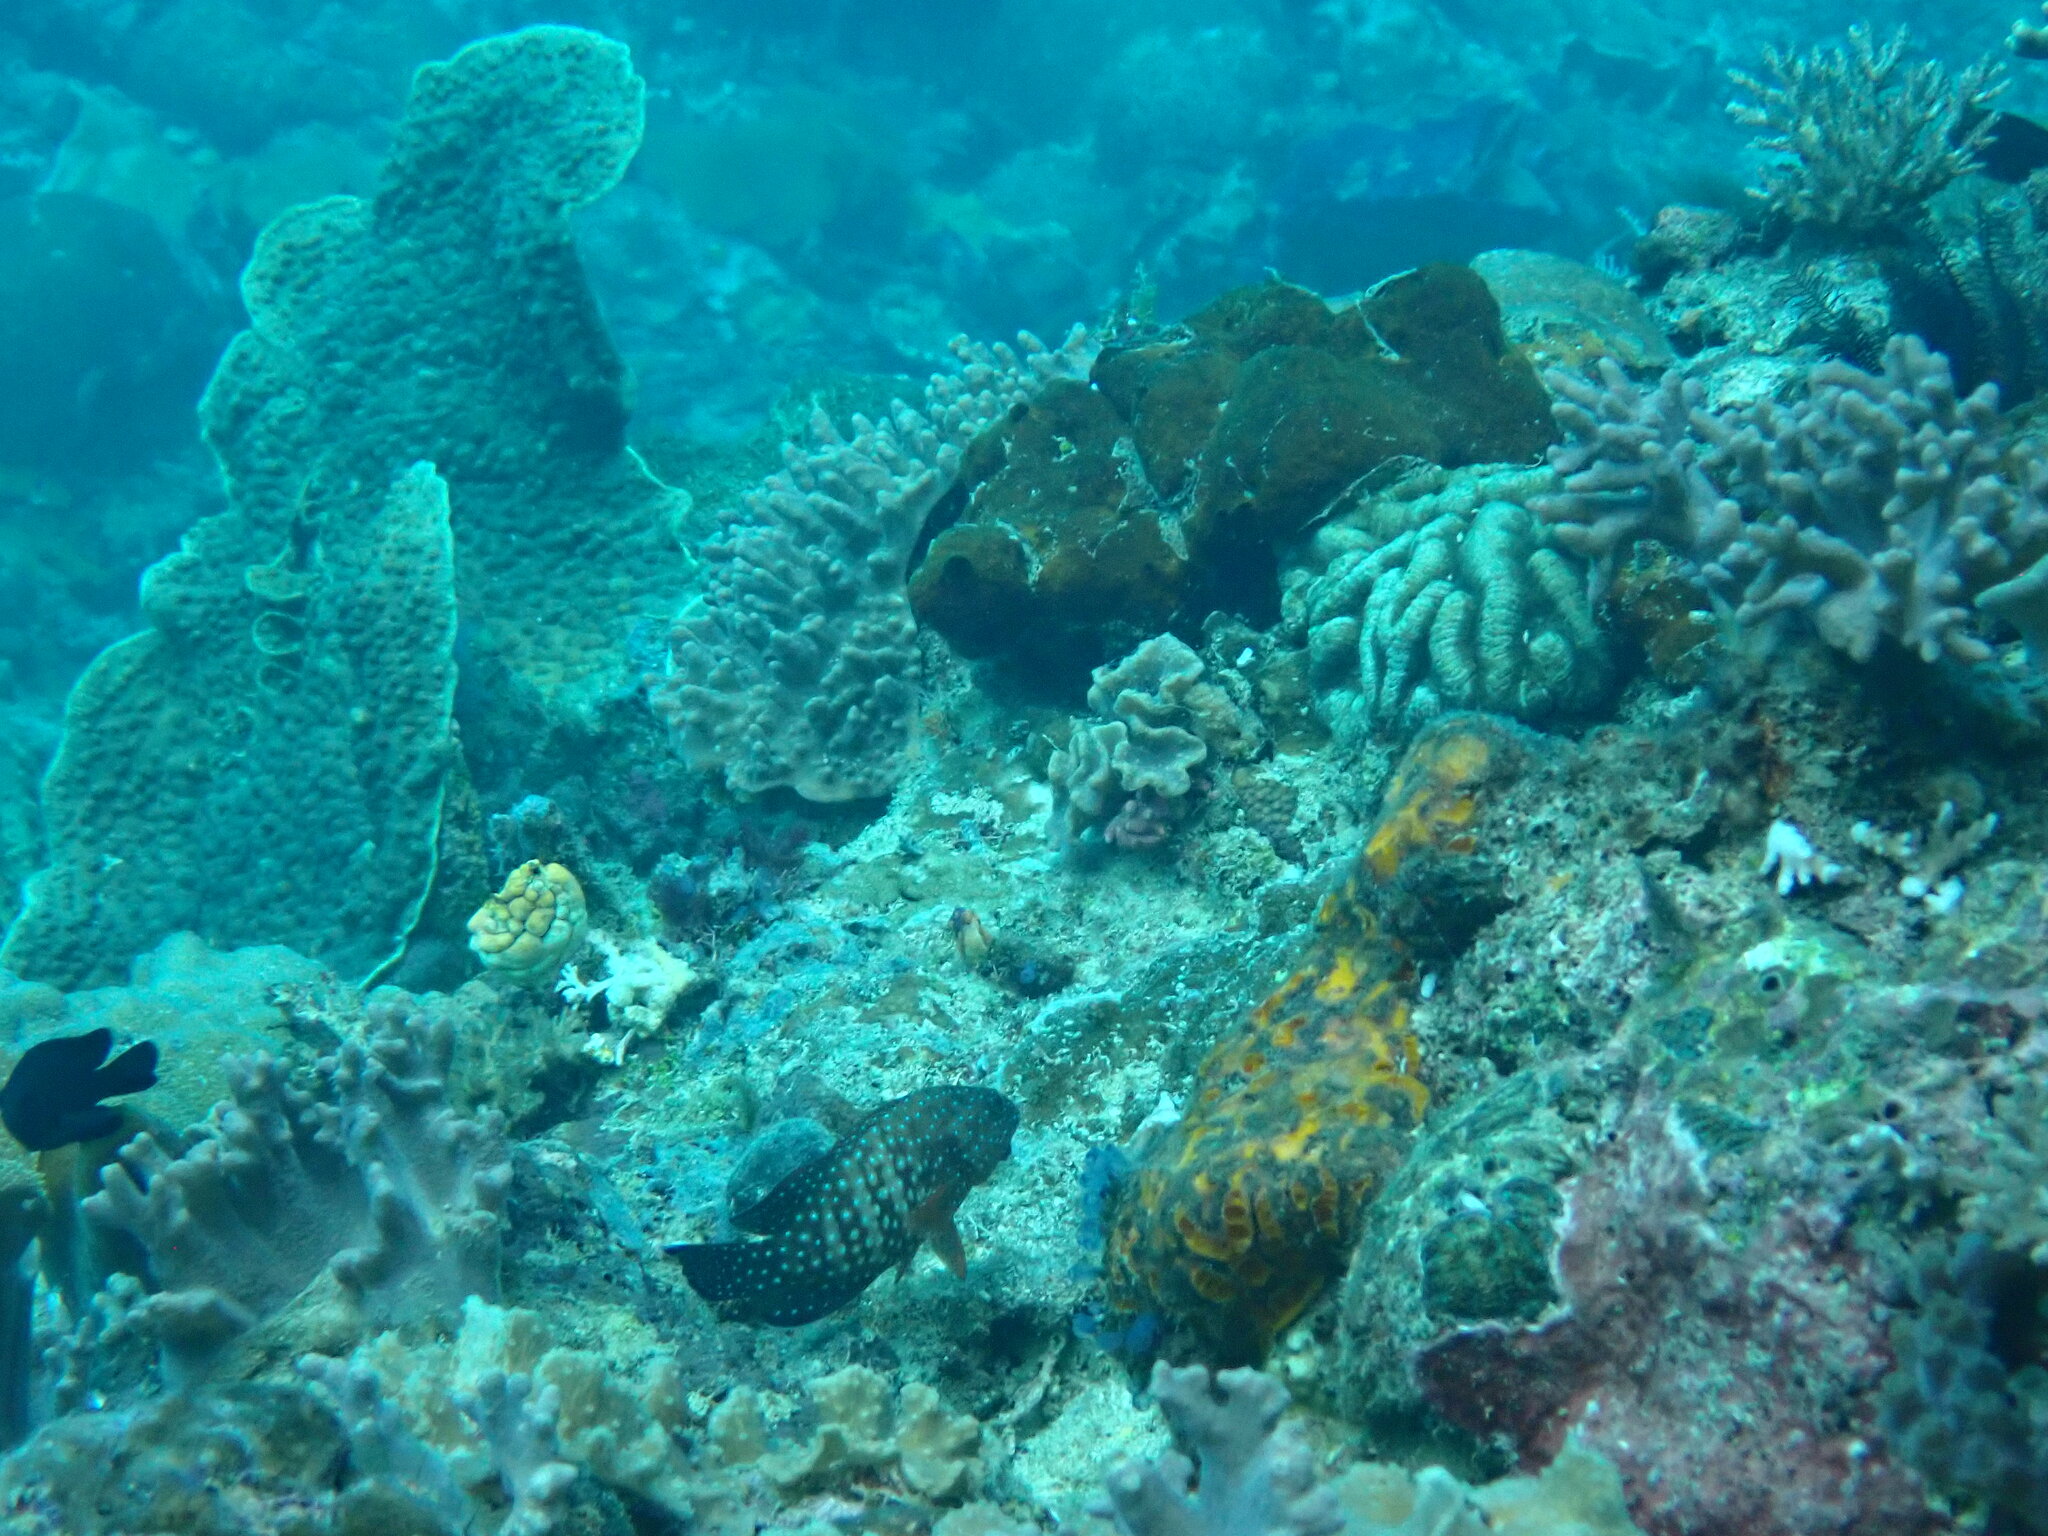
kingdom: Animalia
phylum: Chordata
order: Perciformes
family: Serranidae
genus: Cephalopholis
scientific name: Cephalopholis cyanostigma
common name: Bluespotted hind
